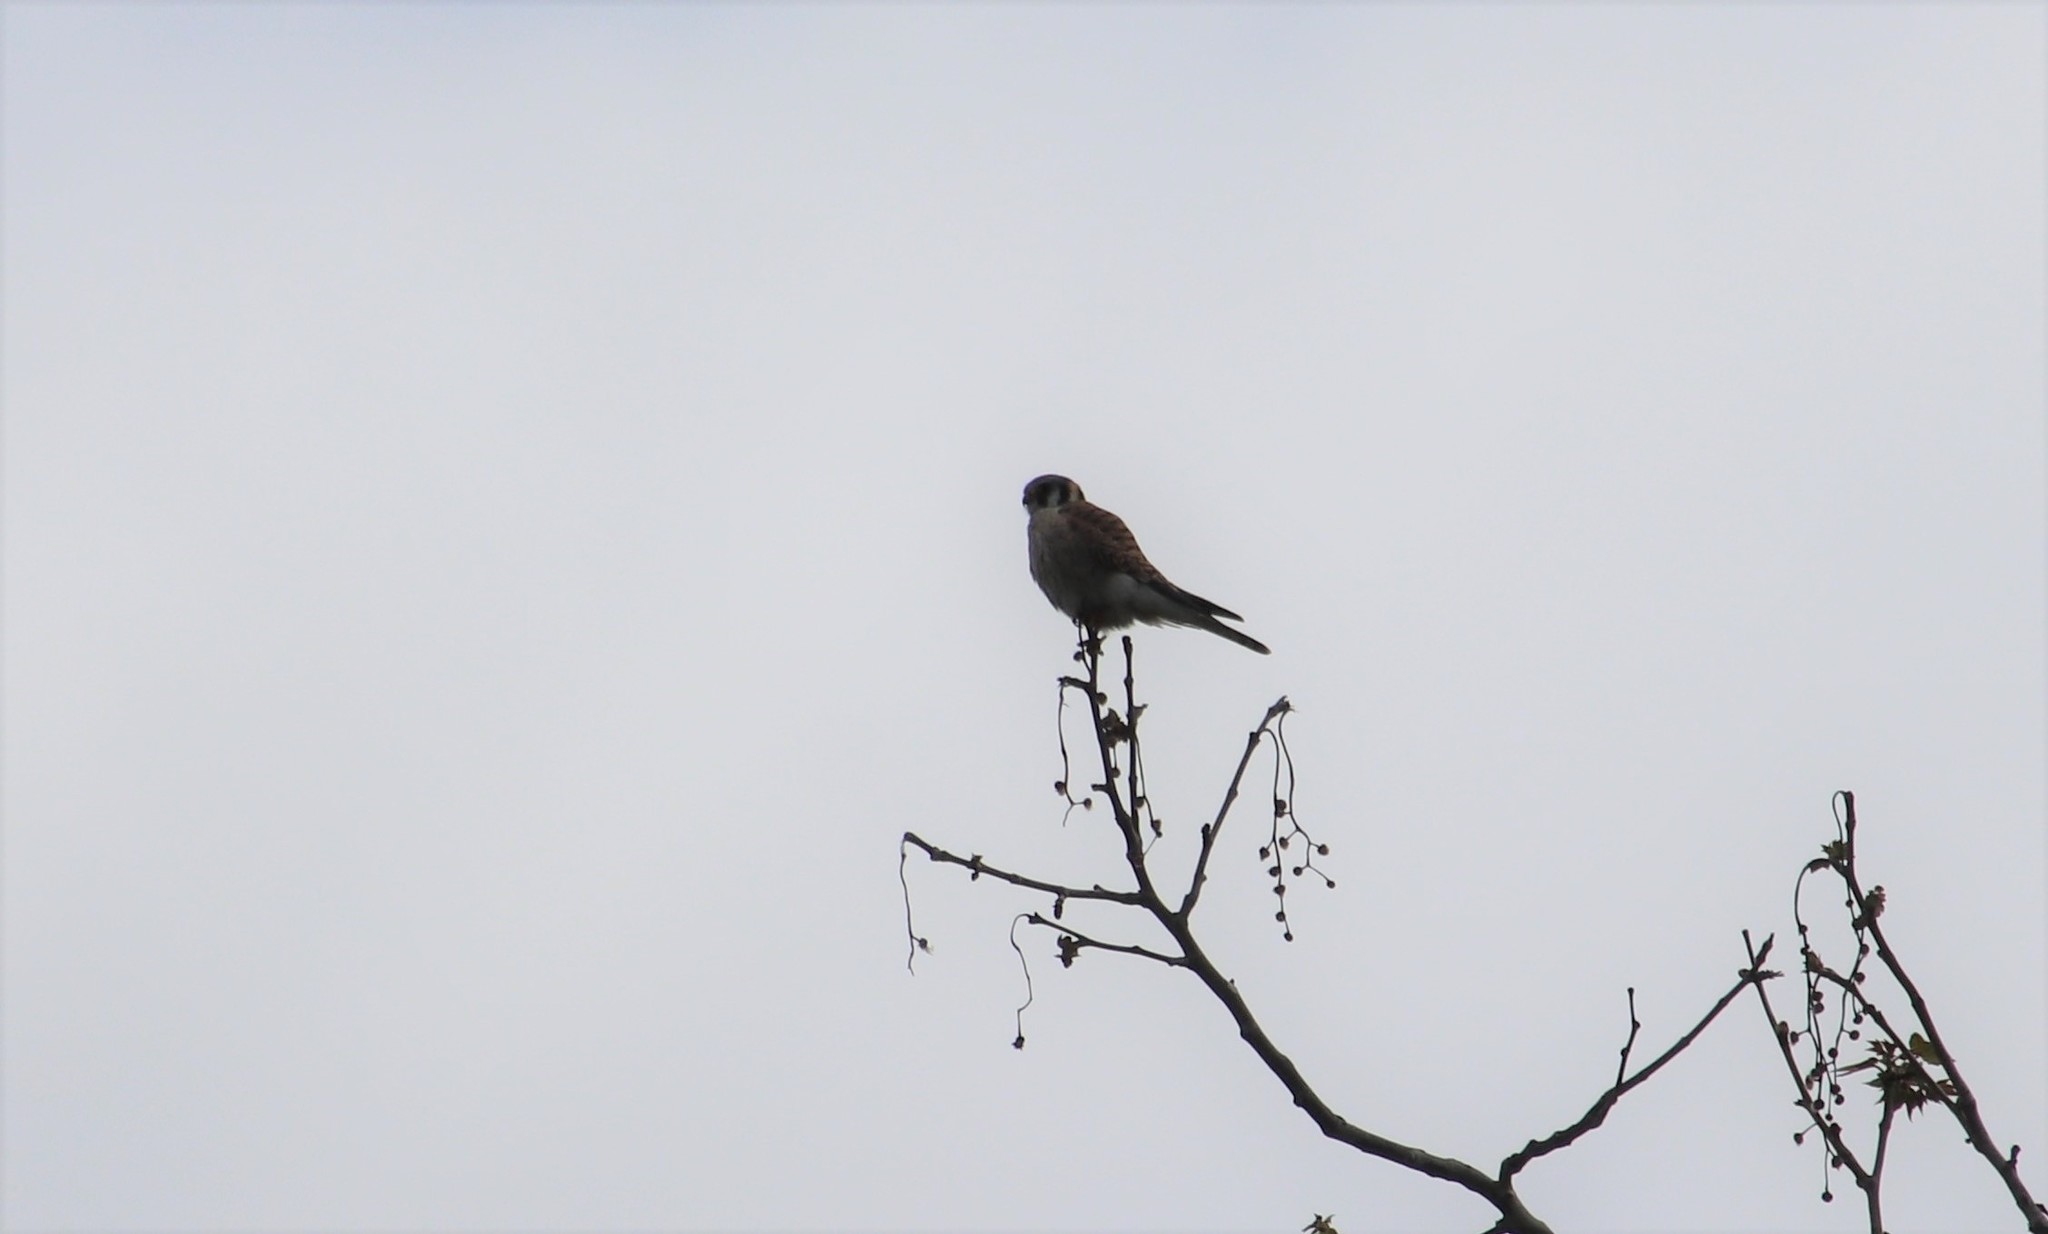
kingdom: Animalia
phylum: Chordata
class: Aves
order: Falconiformes
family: Falconidae
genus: Falco
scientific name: Falco sparverius
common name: American kestrel
